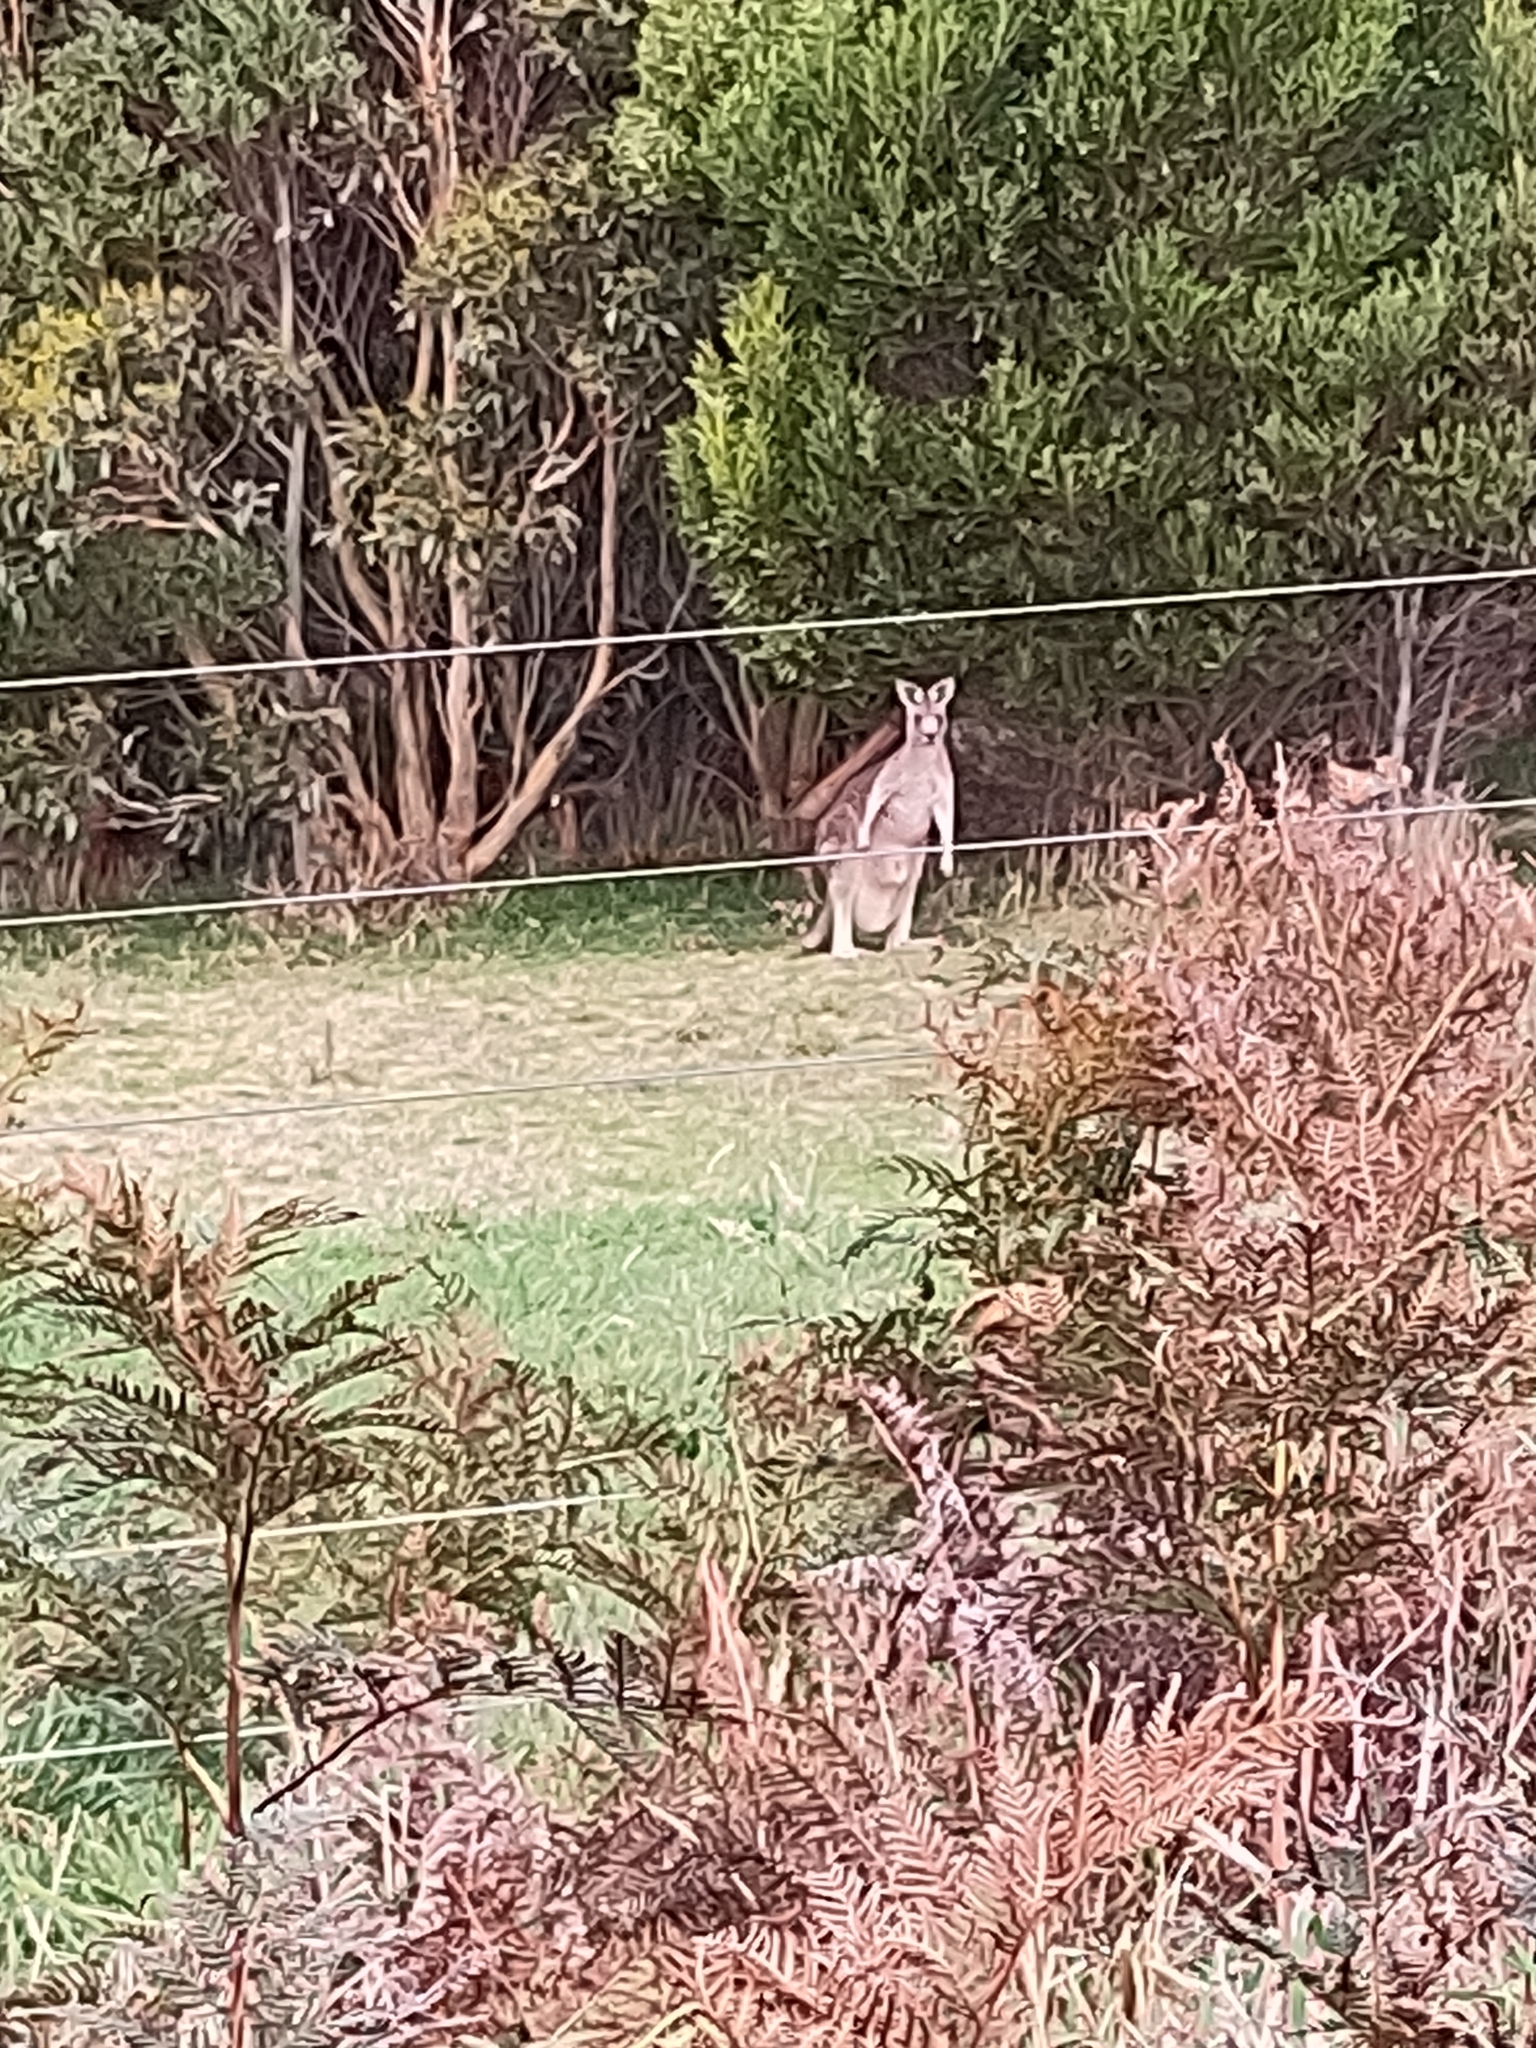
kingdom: Animalia
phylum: Chordata
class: Mammalia
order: Diprotodontia
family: Macropodidae
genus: Macropus
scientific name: Macropus giganteus
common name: Eastern grey kangaroo
